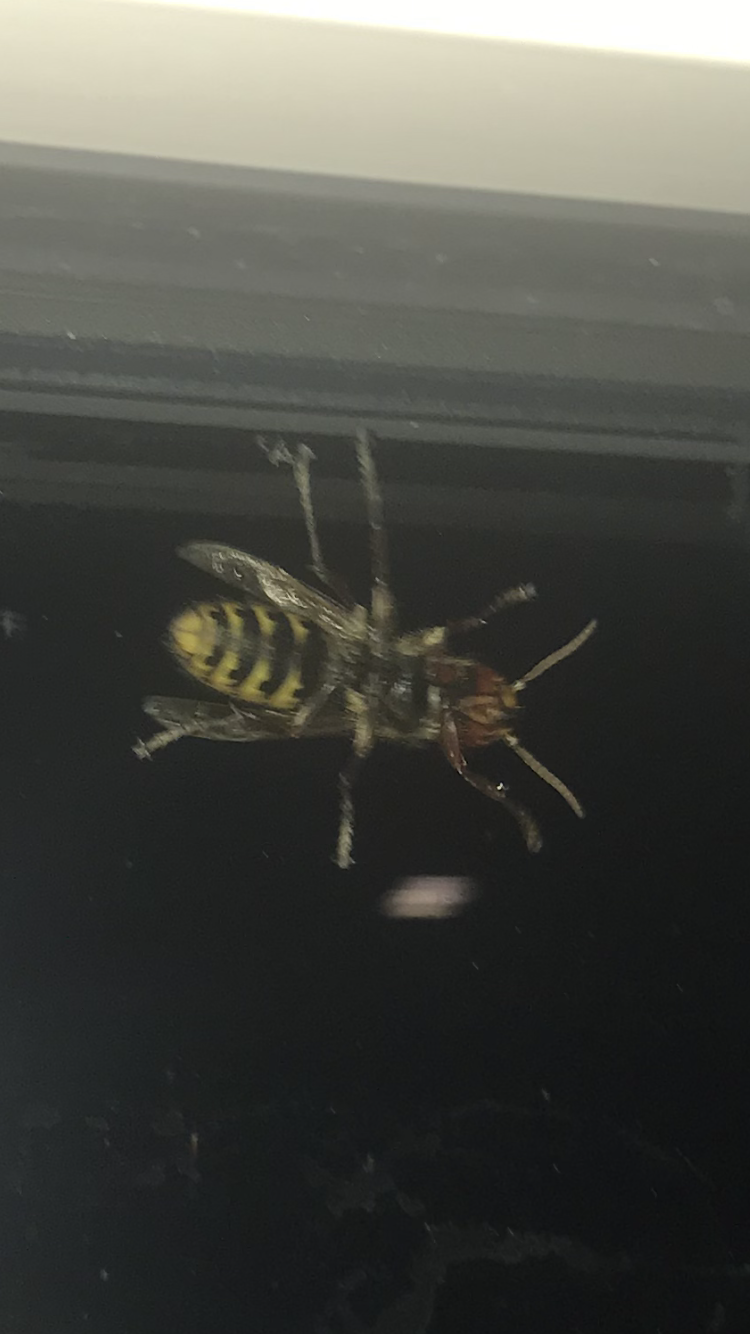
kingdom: Animalia
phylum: Arthropoda
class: Insecta
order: Hymenoptera
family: Vespidae
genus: Vespa
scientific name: Vespa crabro
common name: Hornet
